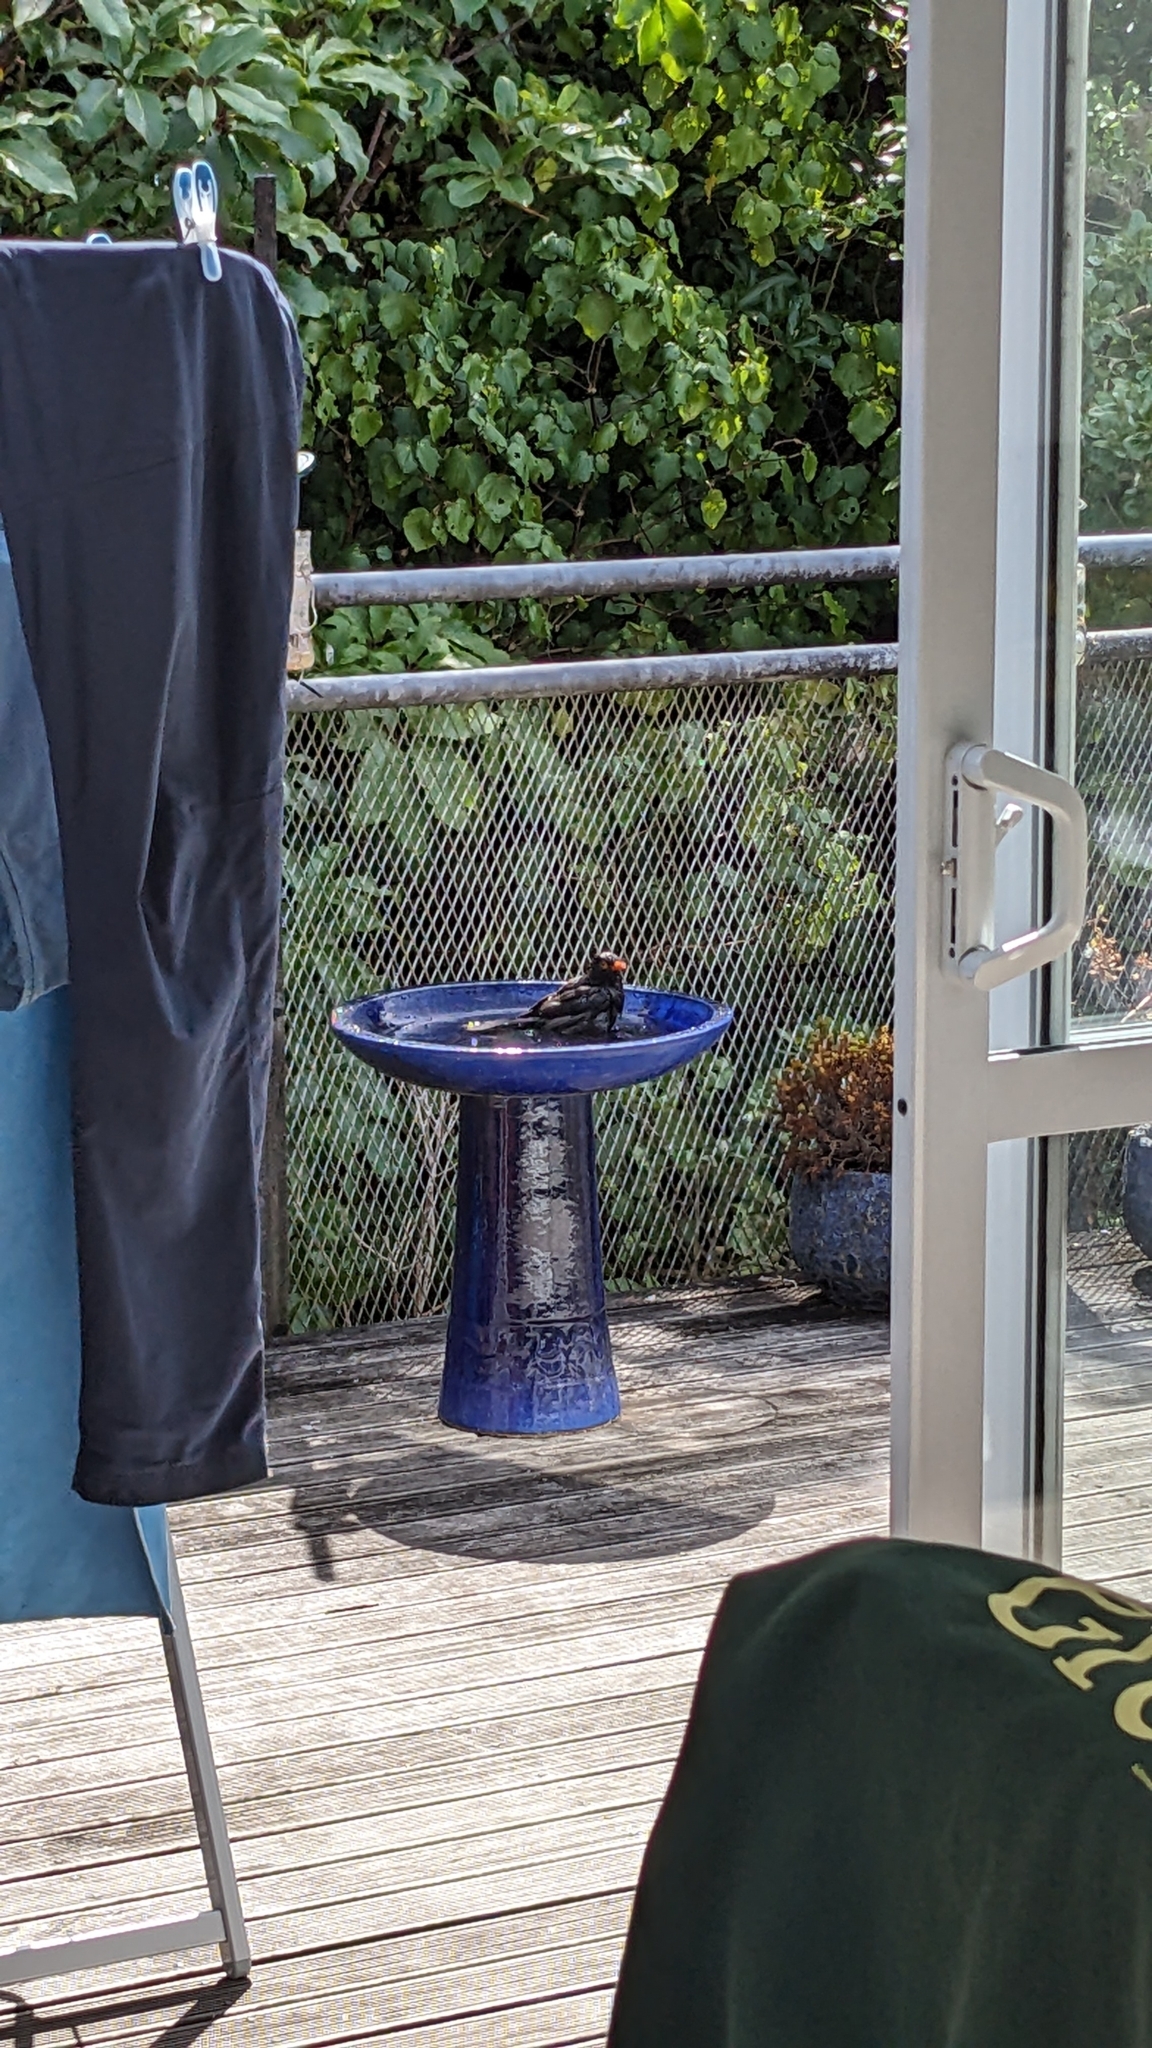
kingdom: Animalia
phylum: Chordata
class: Aves
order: Passeriformes
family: Turdidae
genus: Turdus
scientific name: Turdus merula
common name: Common blackbird
